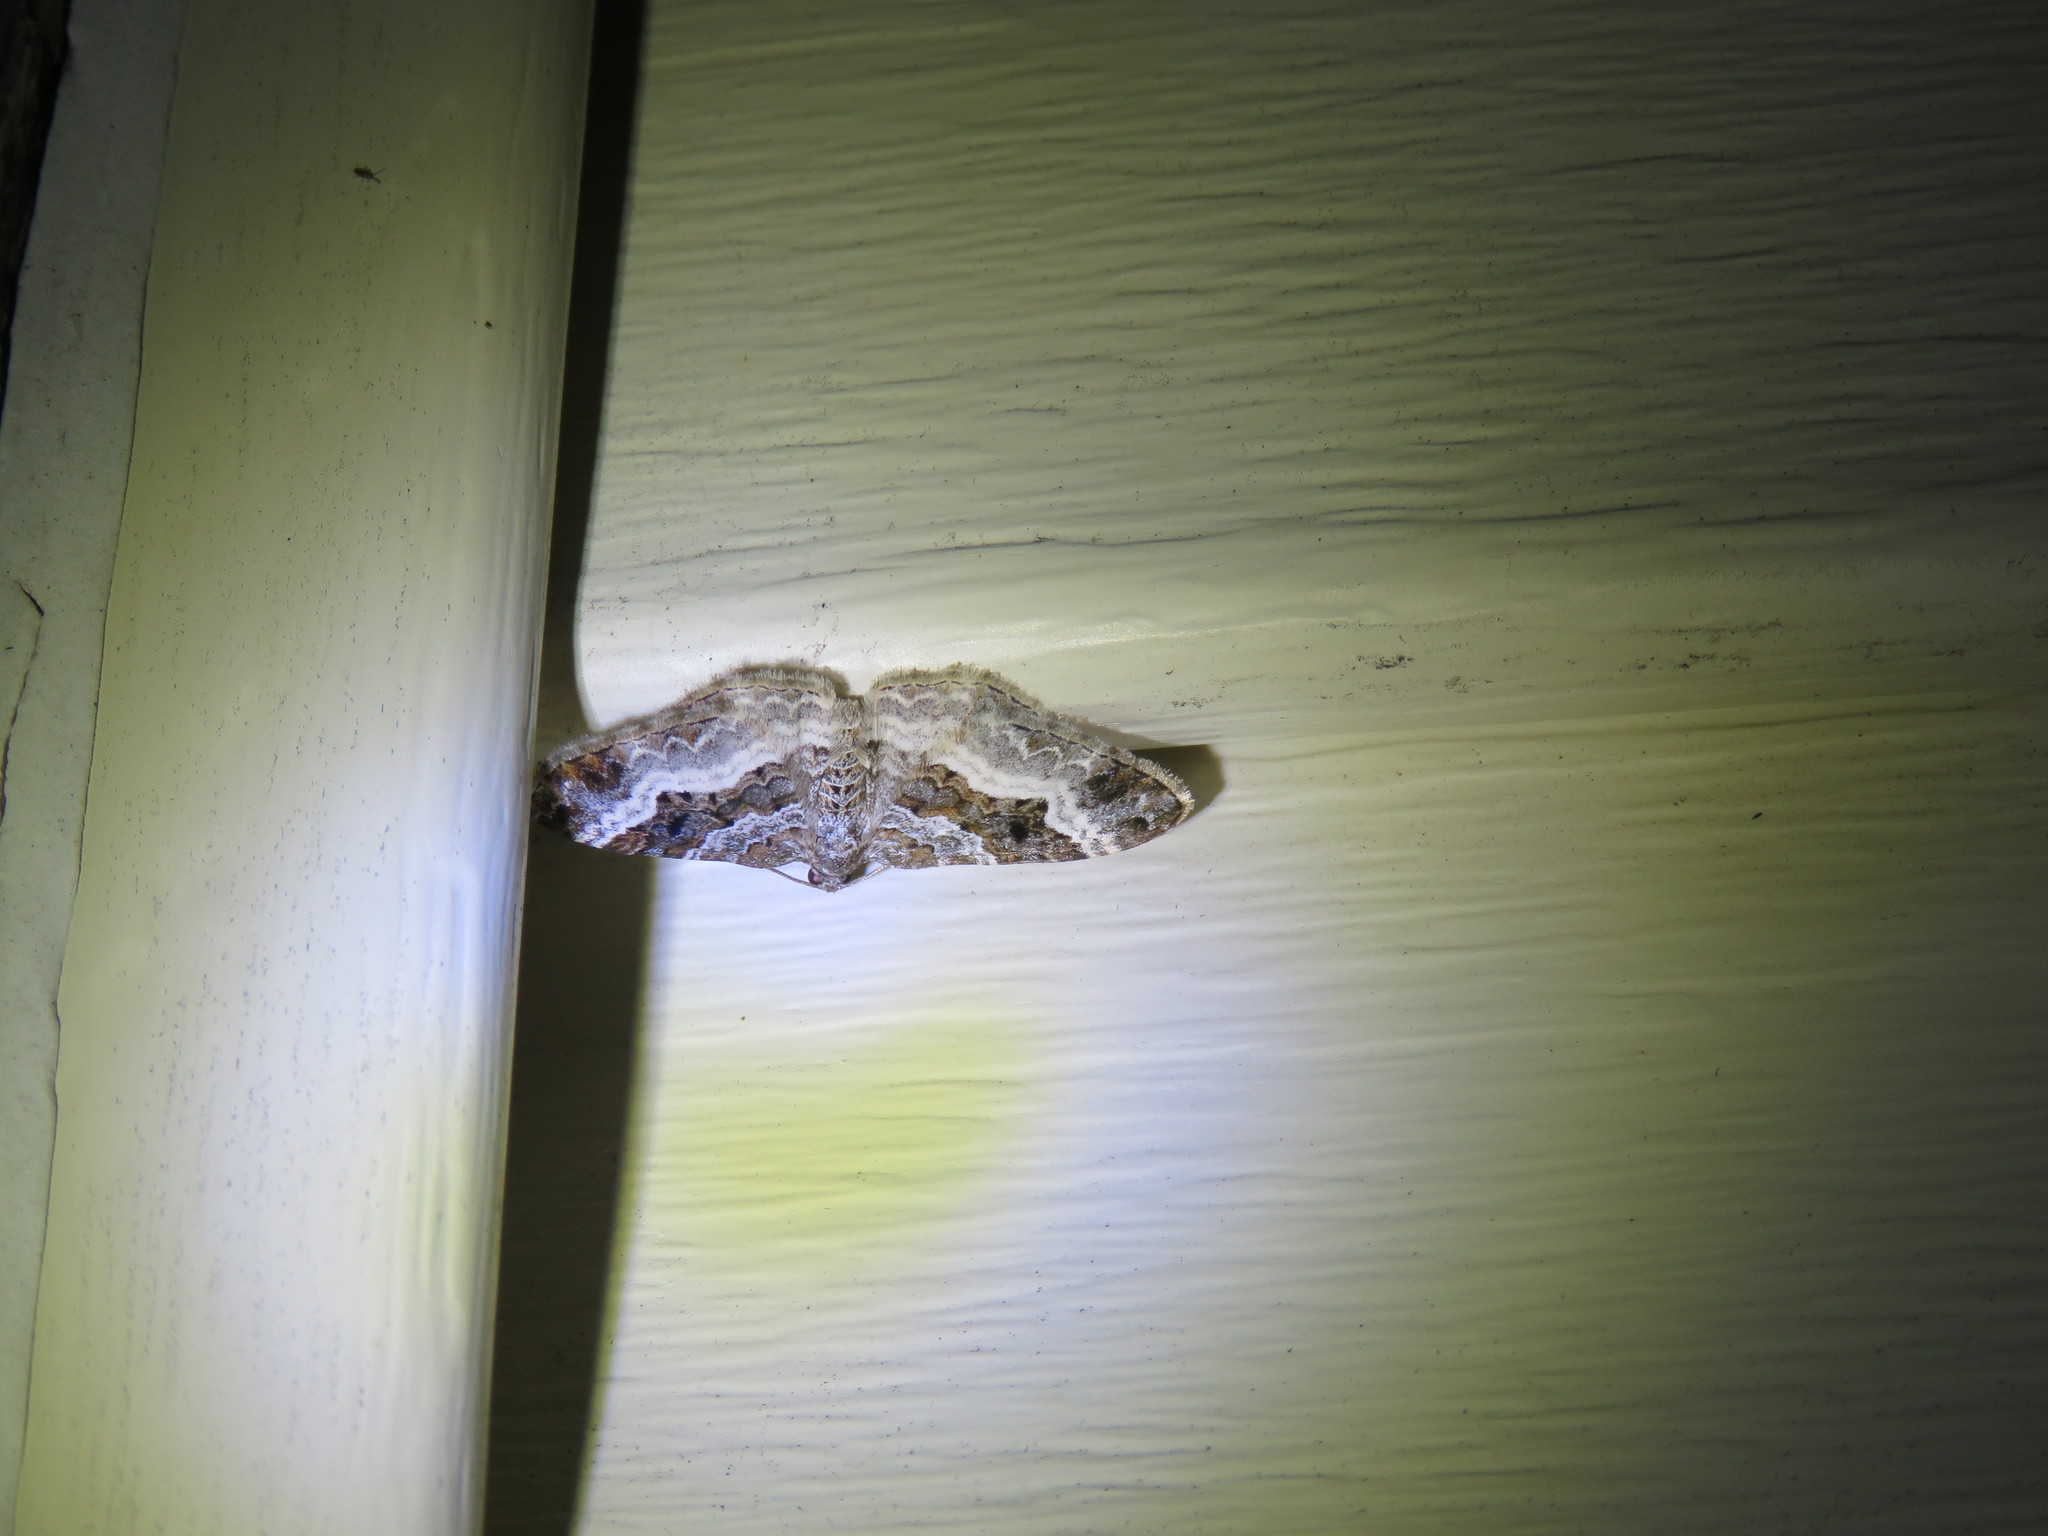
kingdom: Animalia
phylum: Arthropoda
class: Insecta
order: Lepidoptera
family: Geometridae
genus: Epirrhoe
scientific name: Epirrhoe alternata
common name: Common carpet
